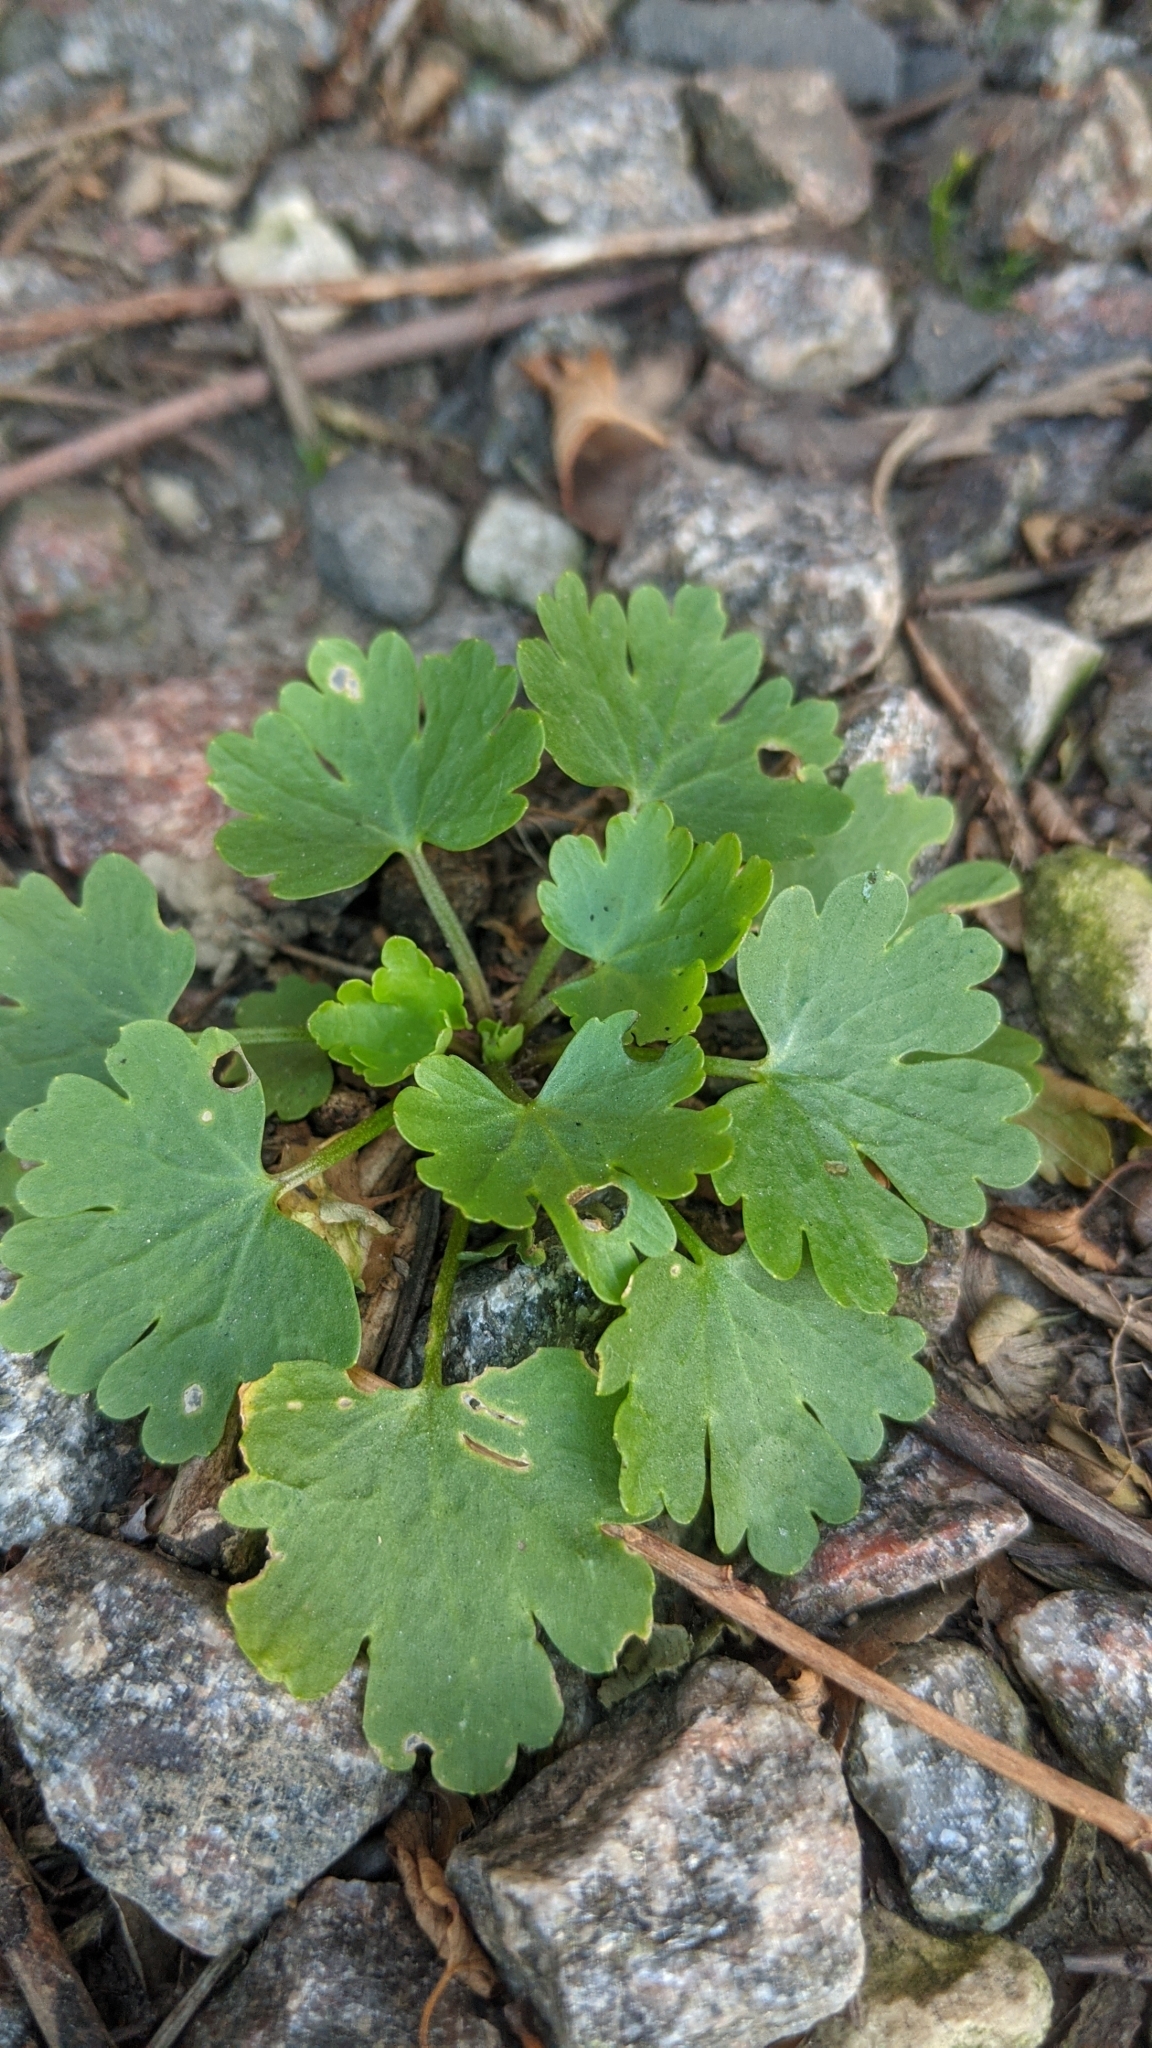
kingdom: Plantae
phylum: Tracheophyta
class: Magnoliopsida
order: Ranunculales
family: Ranunculaceae
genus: Ranunculus
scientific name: Ranunculus sceleratus
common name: Celery-leaved buttercup
